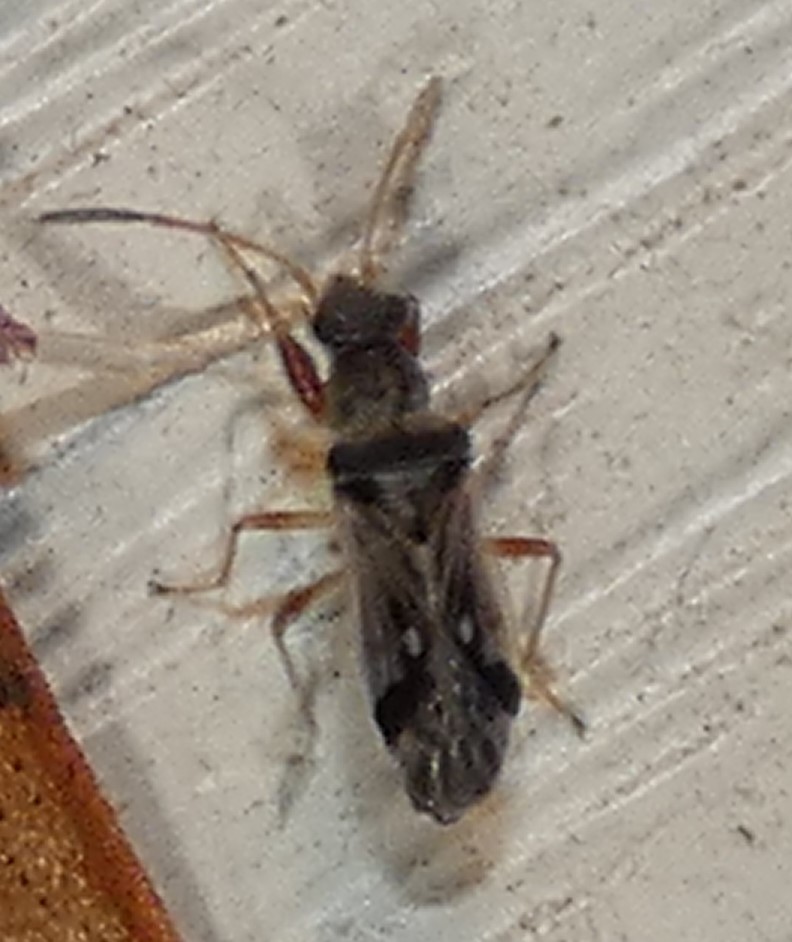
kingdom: Animalia
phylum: Arthropoda
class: Insecta
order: Hemiptera
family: Rhyparochromidae
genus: Pseudopachybrachius
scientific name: Pseudopachybrachius vinctus
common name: Dirt-colored seed bug
